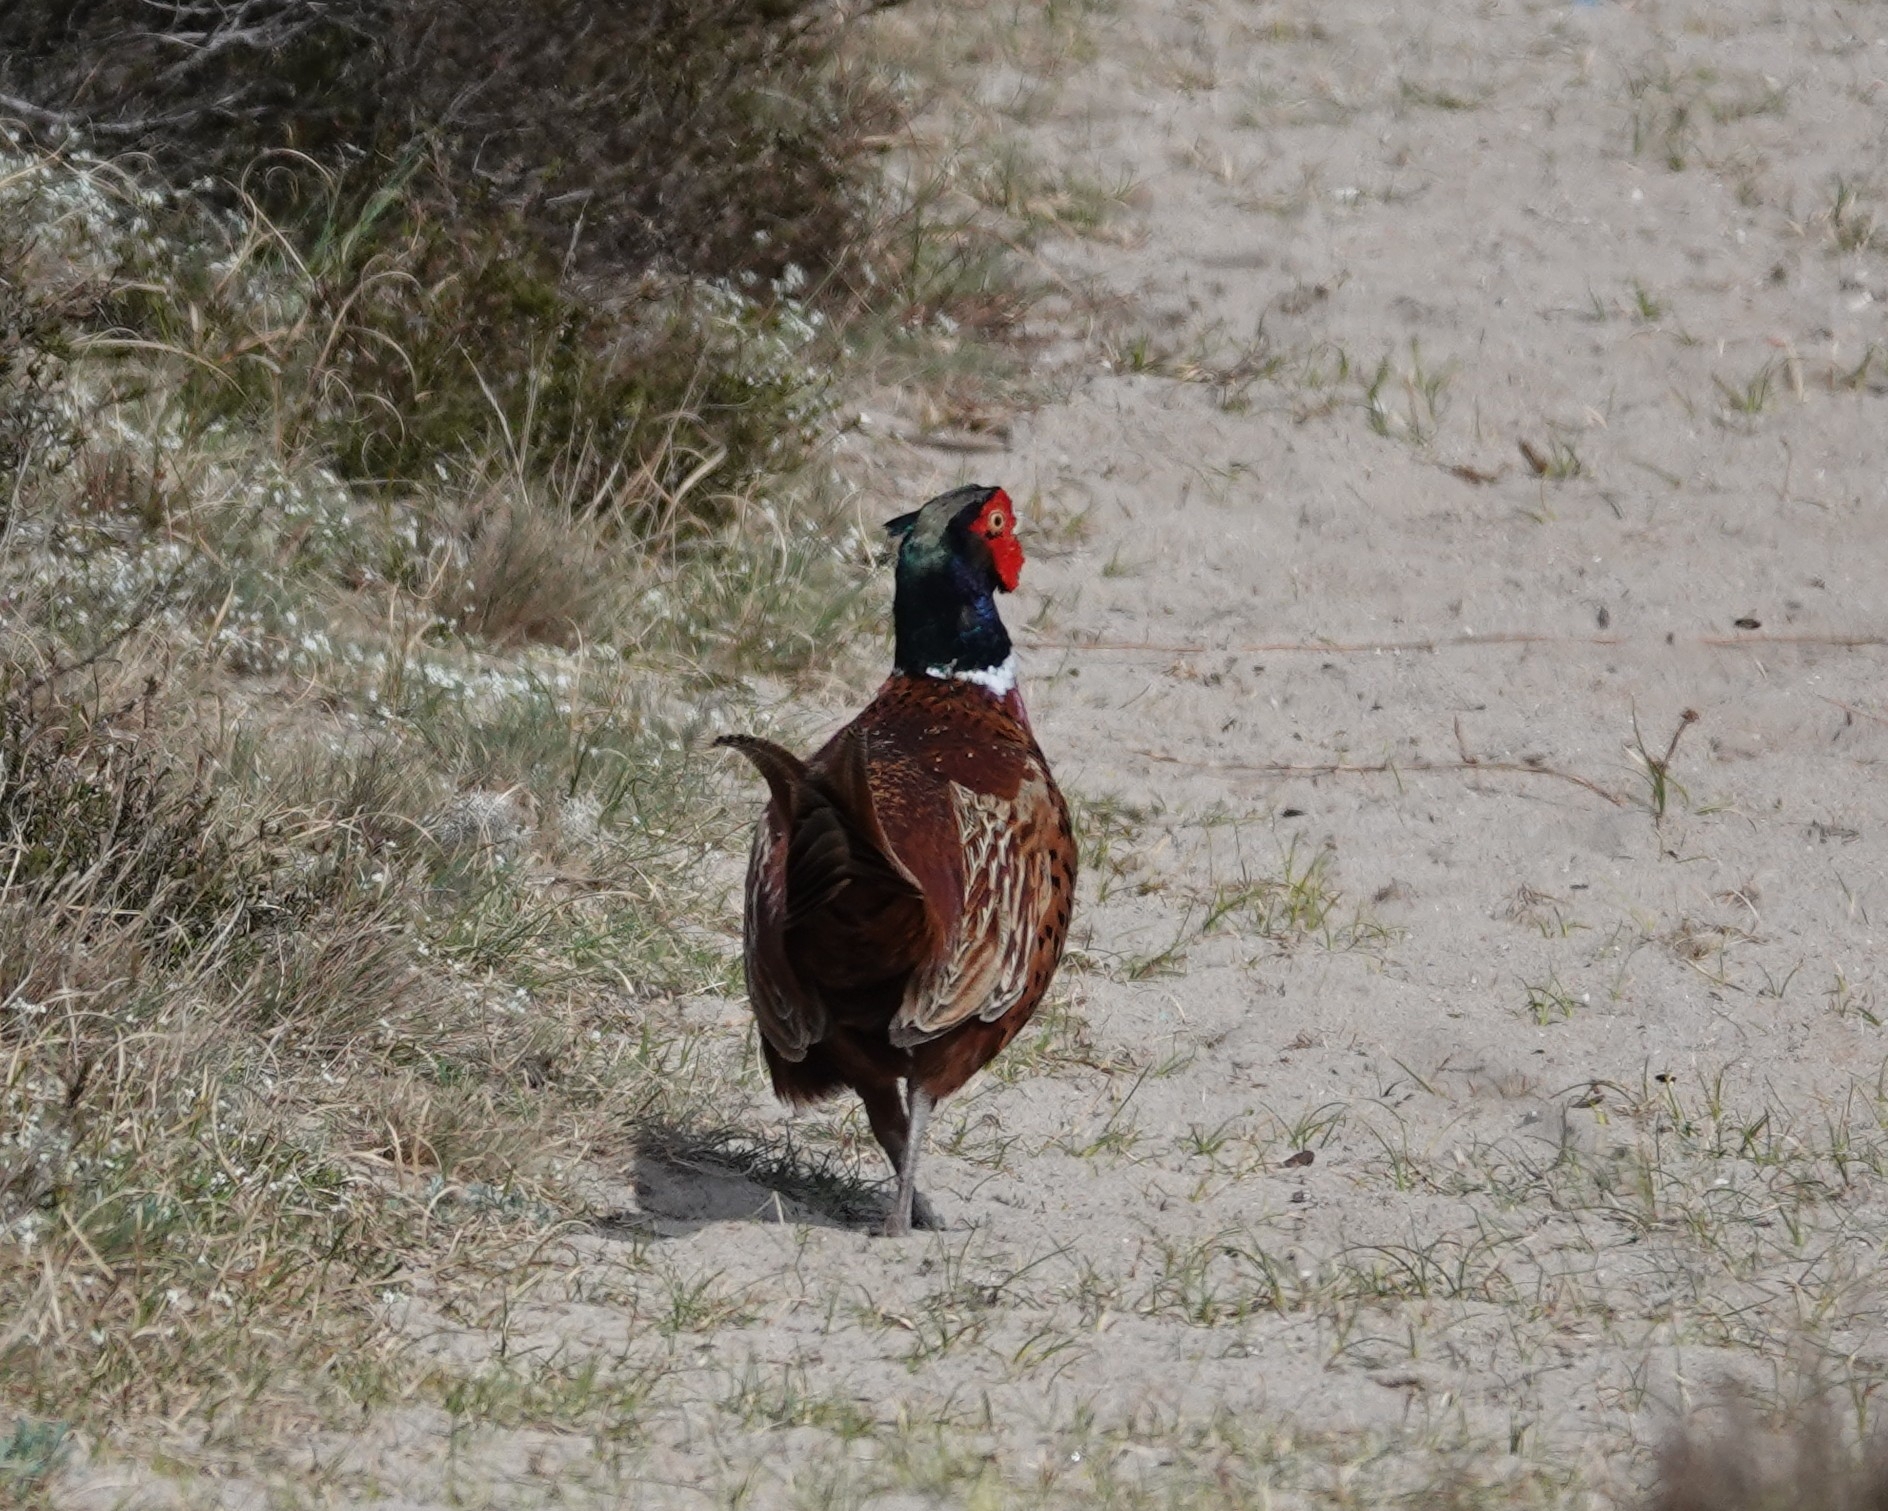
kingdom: Animalia
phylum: Chordata
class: Aves
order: Galliformes
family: Phasianidae
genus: Phasianus
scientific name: Phasianus colchicus
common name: Common pheasant
